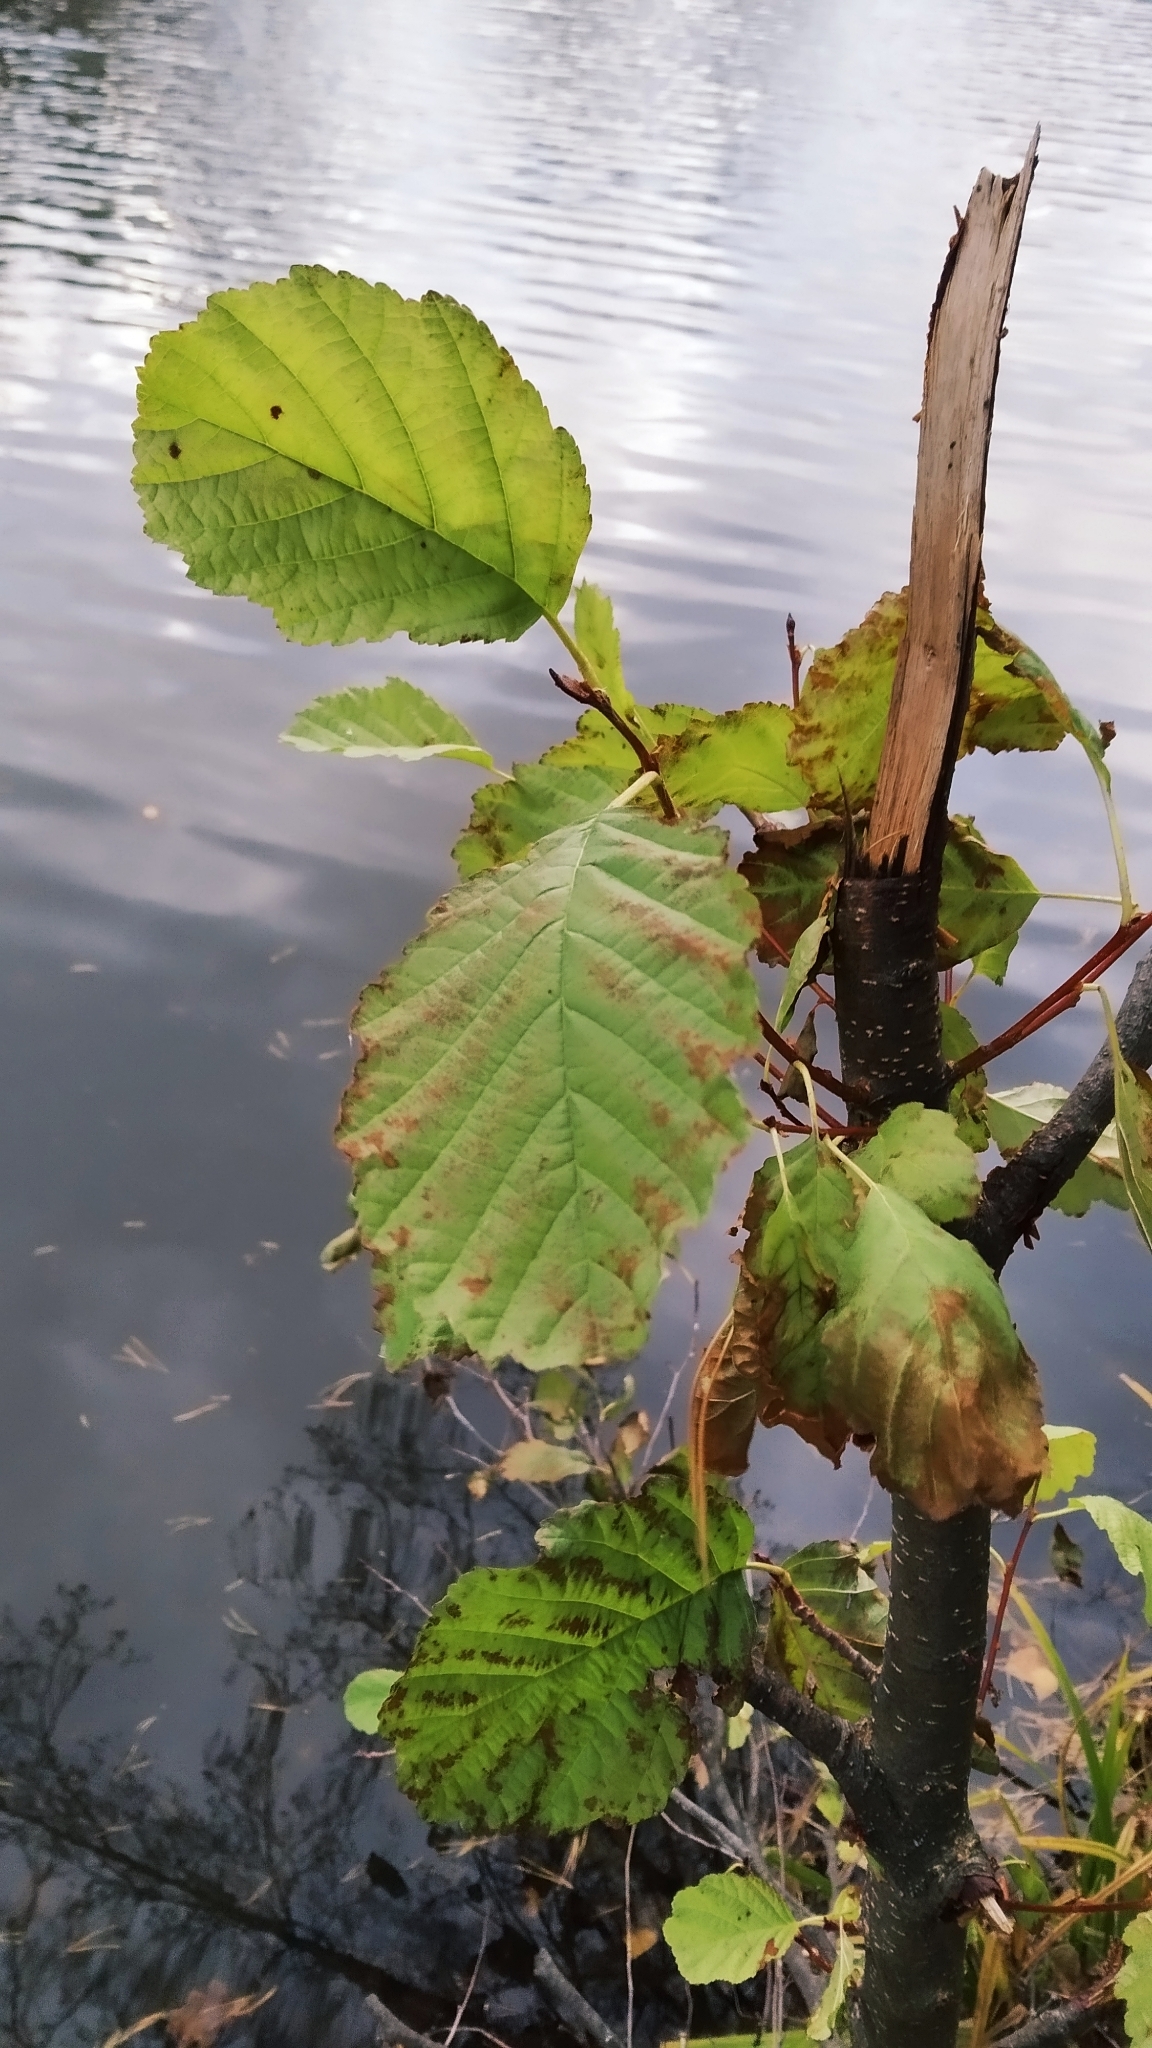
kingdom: Plantae
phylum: Tracheophyta
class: Magnoliopsida
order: Fagales
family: Betulaceae
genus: Alnus
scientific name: Alnus glutinosa
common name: Black alder
